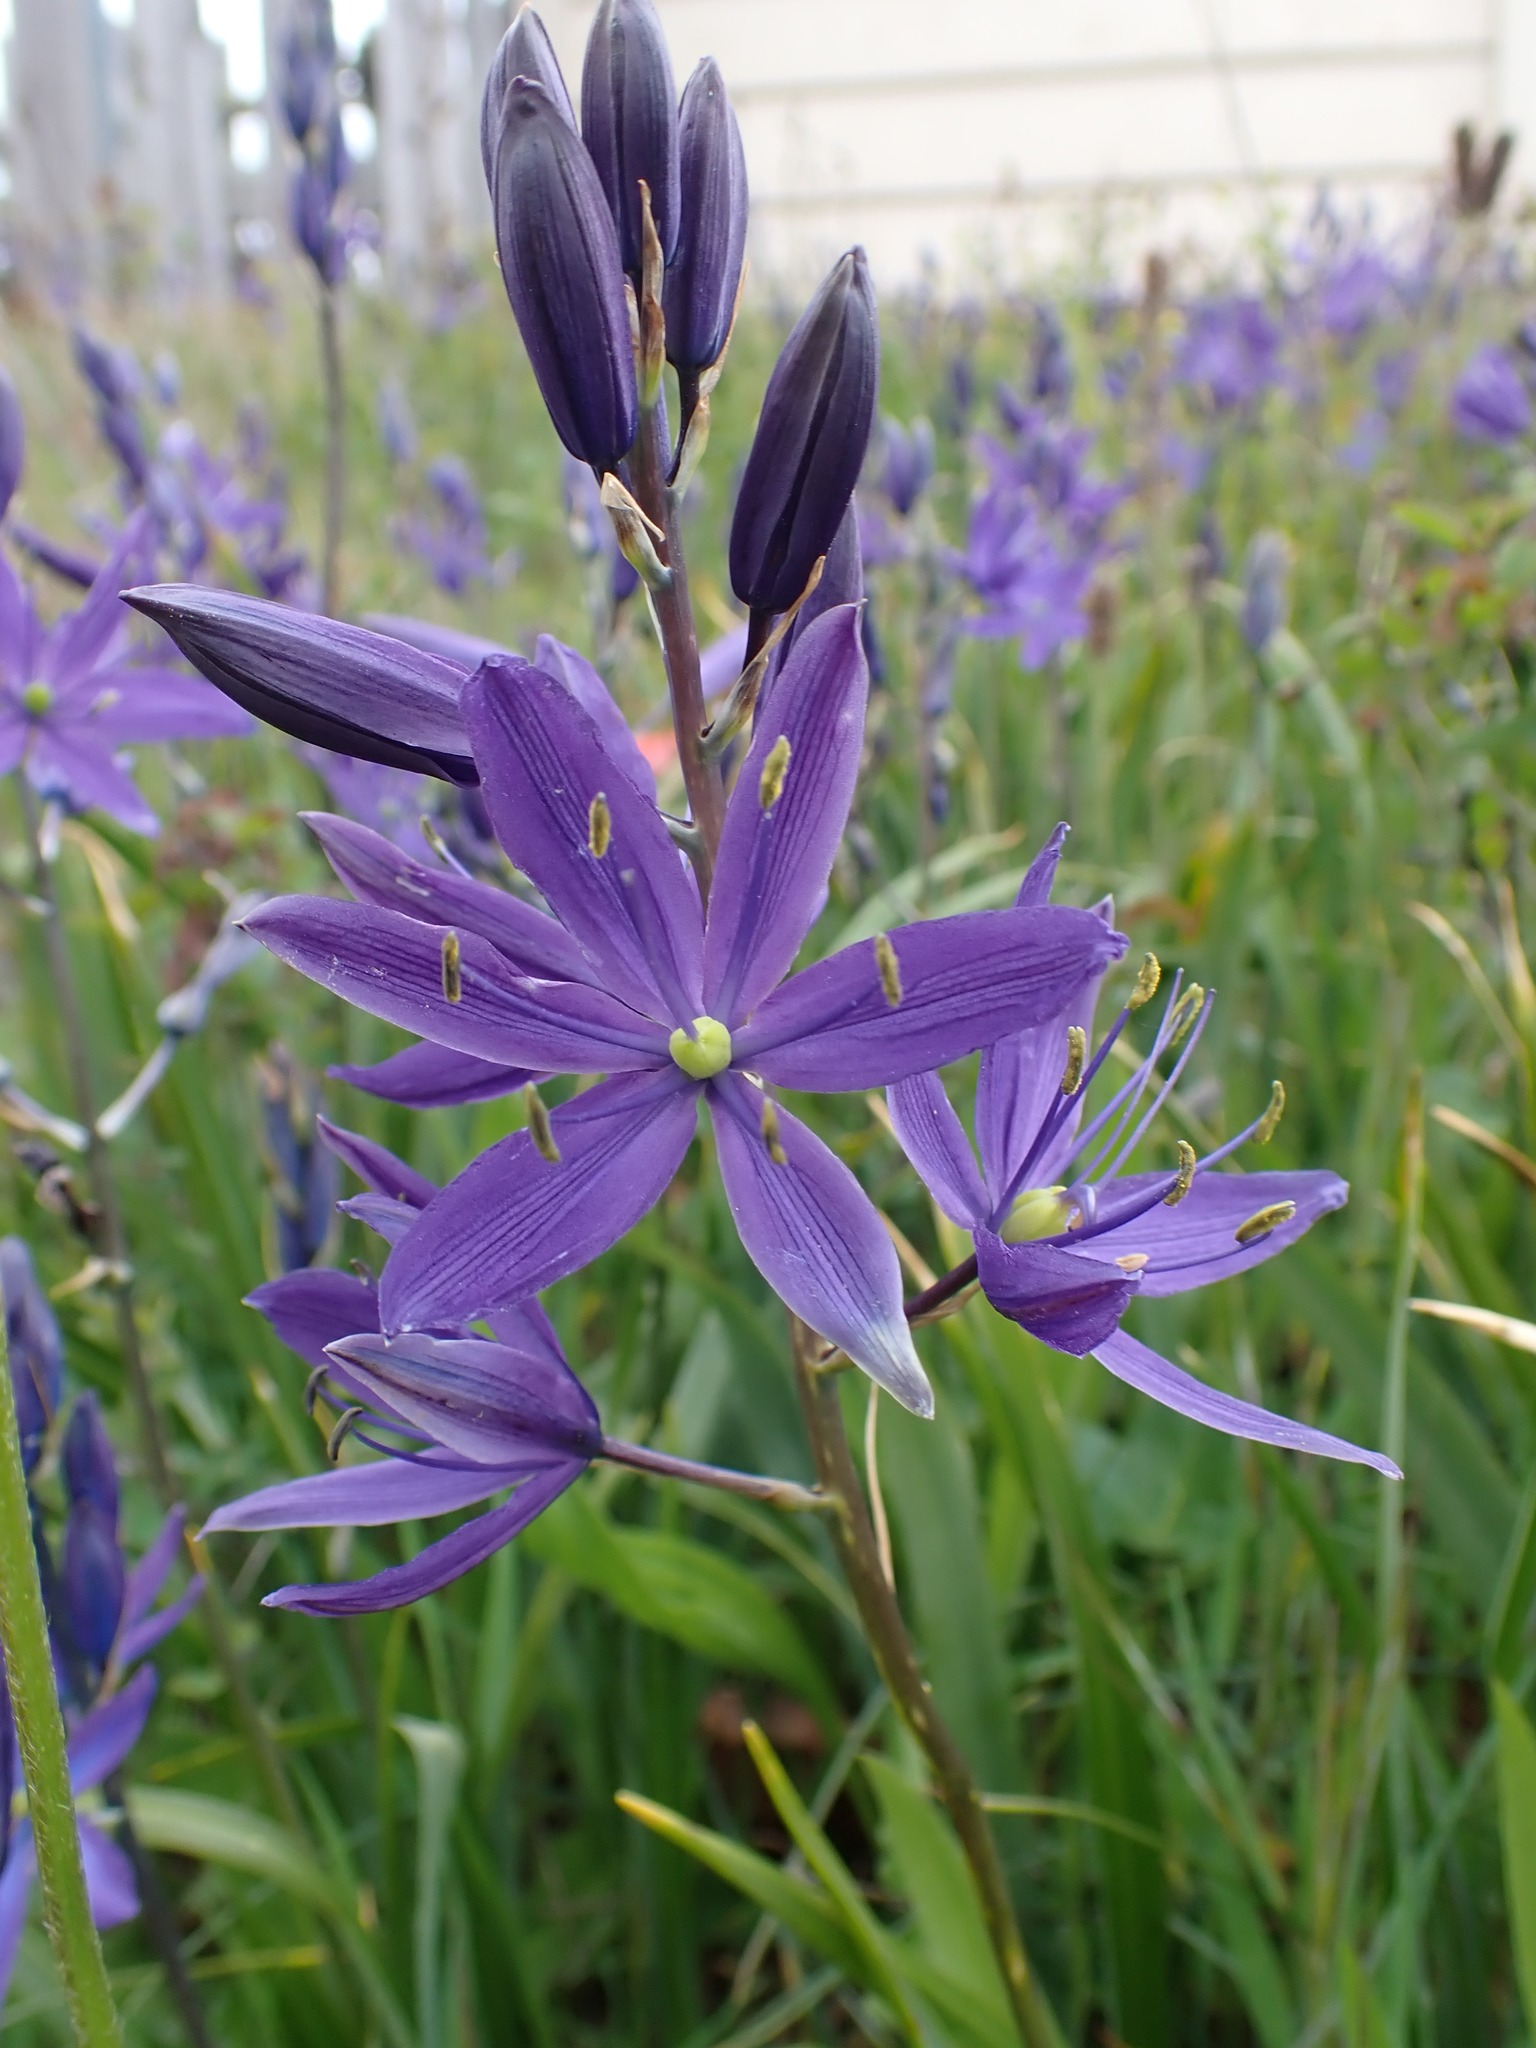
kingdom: Plantae
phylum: Tracheophyta
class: Liliopsida
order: Asparagales
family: Asparagaceae
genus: Camassia
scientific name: Camassia leichtlinii
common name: Leichtlin's camas
